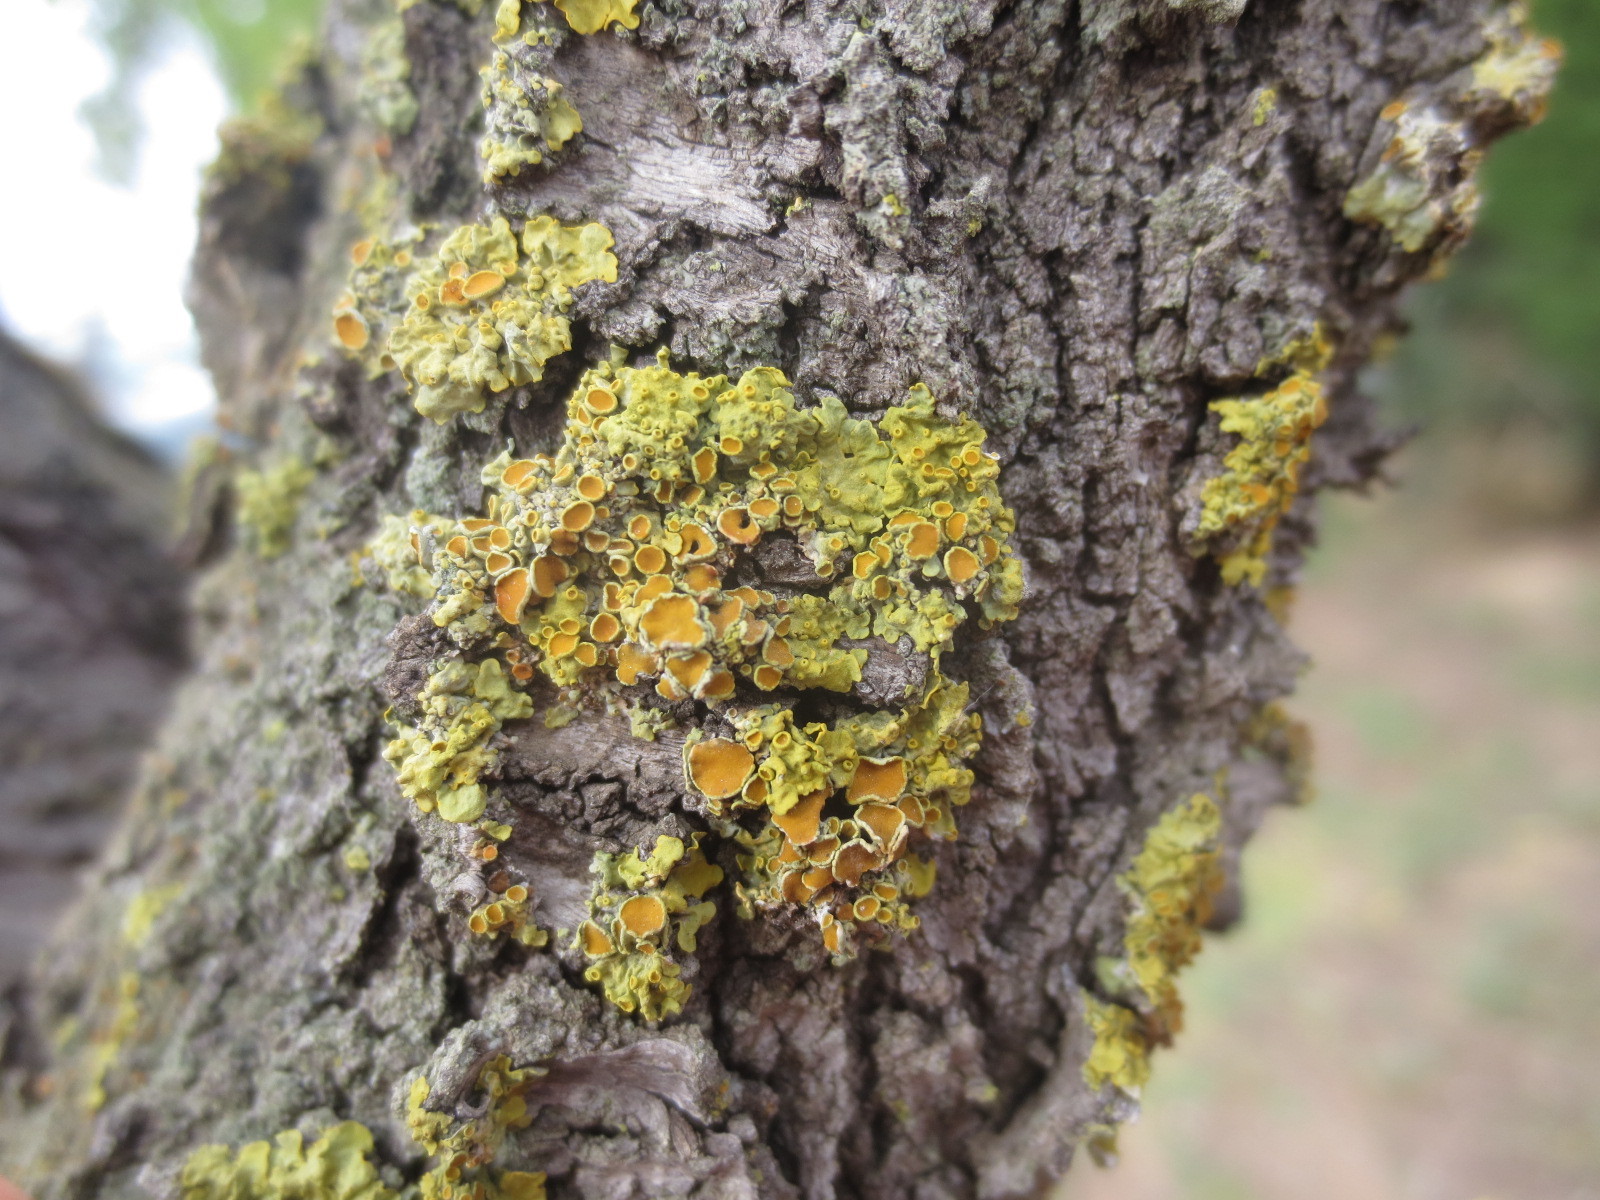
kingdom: Fungi
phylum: Ascomycota
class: Lecanoromycetes
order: Teloschistales
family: Teloschistaceae
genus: Xanthoria
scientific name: Xanthoria parietina
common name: Common orange lichen
